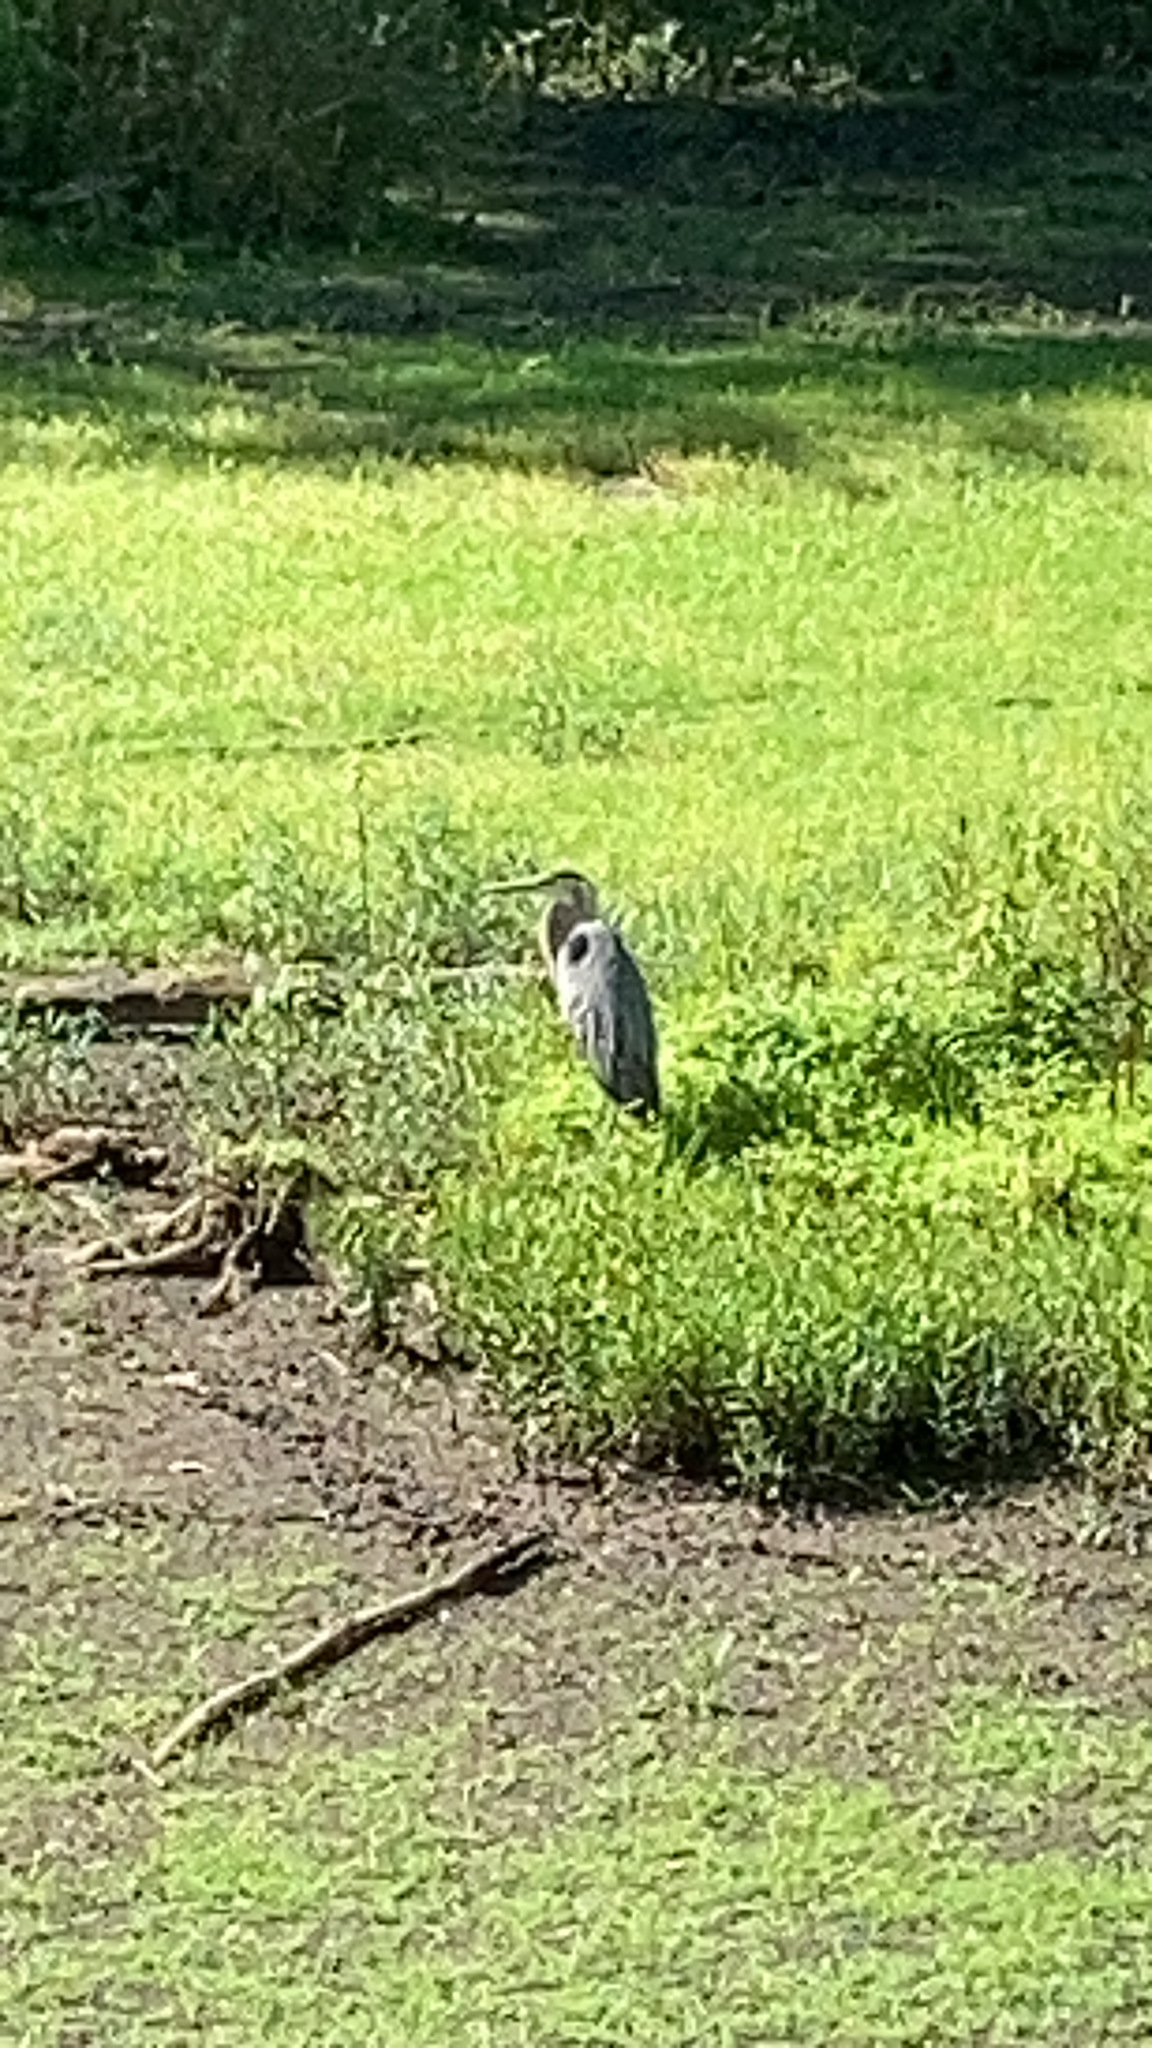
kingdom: Animalia
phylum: Chordata
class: Aves
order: Pelecaniformes
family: Ardeidae
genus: Ardea
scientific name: Ardea herodias
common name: Great blue heron
